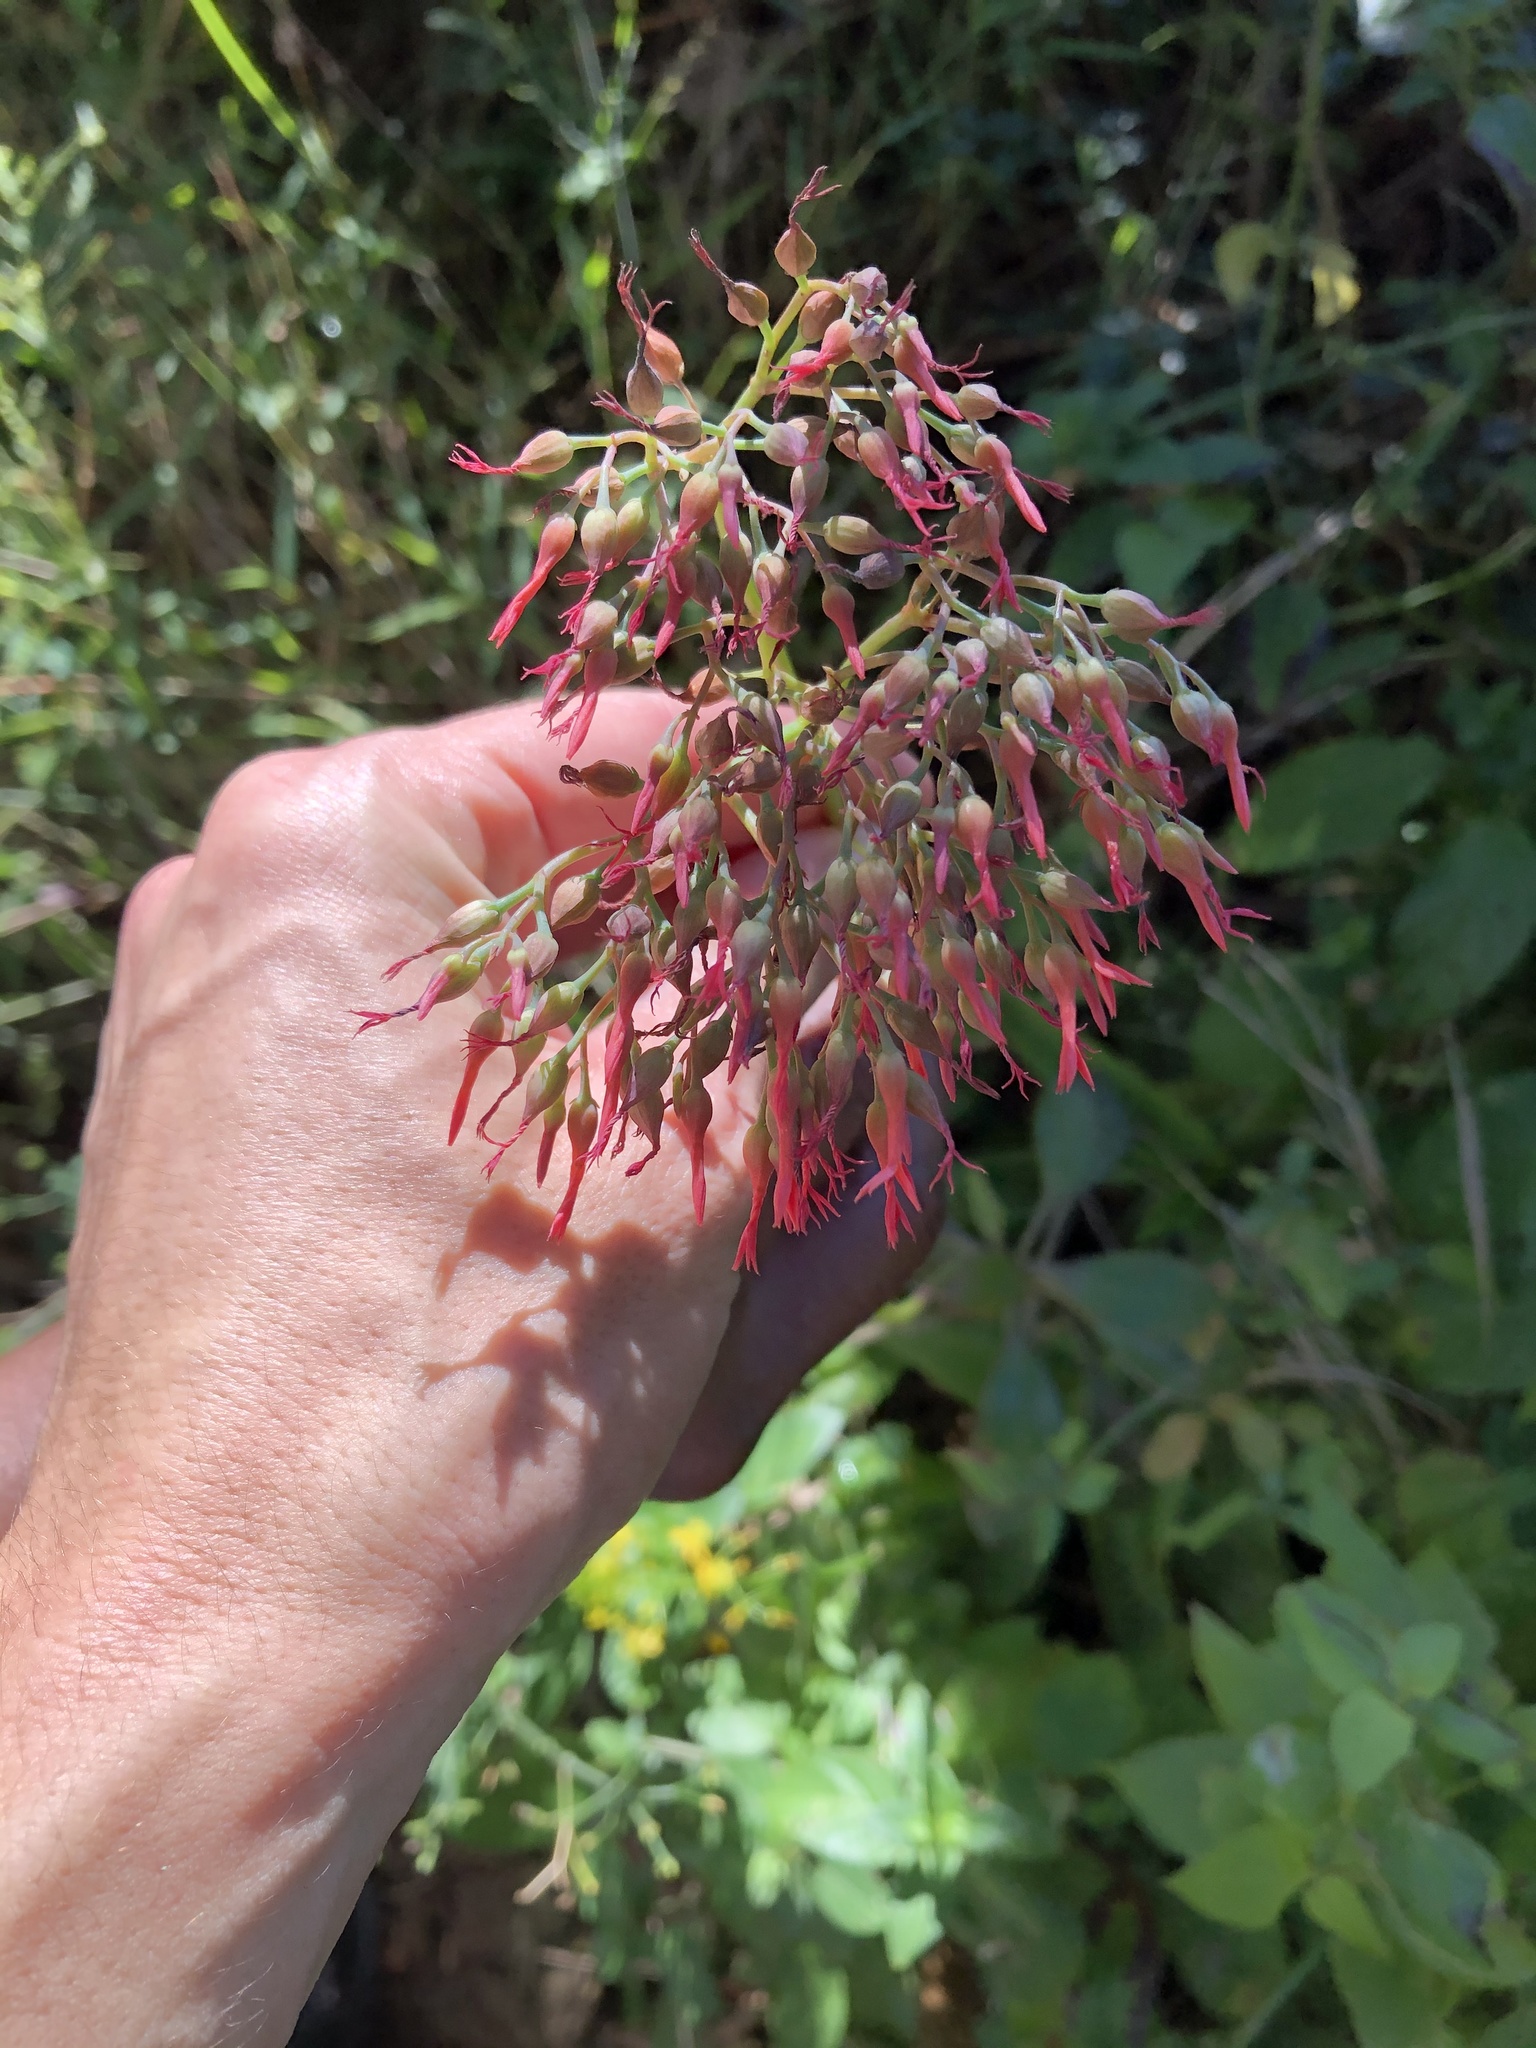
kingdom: Plantae
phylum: Tracheophyta
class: Magnoliopsida
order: Saxifragales
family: Crassulaceae
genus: Kalanchoe
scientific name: Kalanchoe rotundifolia
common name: Common kalanchoe
